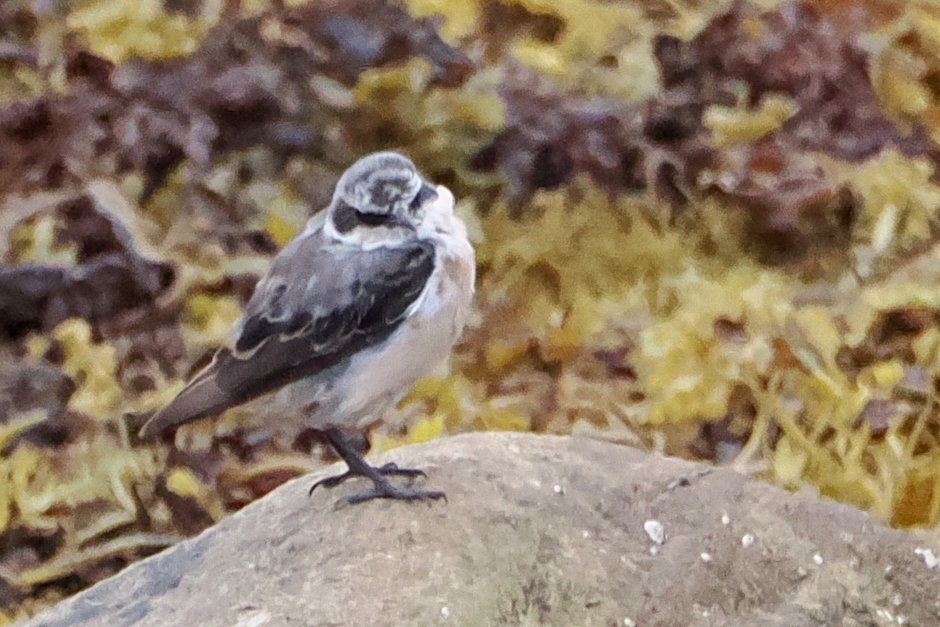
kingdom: Animalia
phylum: Chordata
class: Aves
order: Passeriformes
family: Muscicapidae
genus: Oenanthe
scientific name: Oenanthe oenanthe
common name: Northern wheatear
